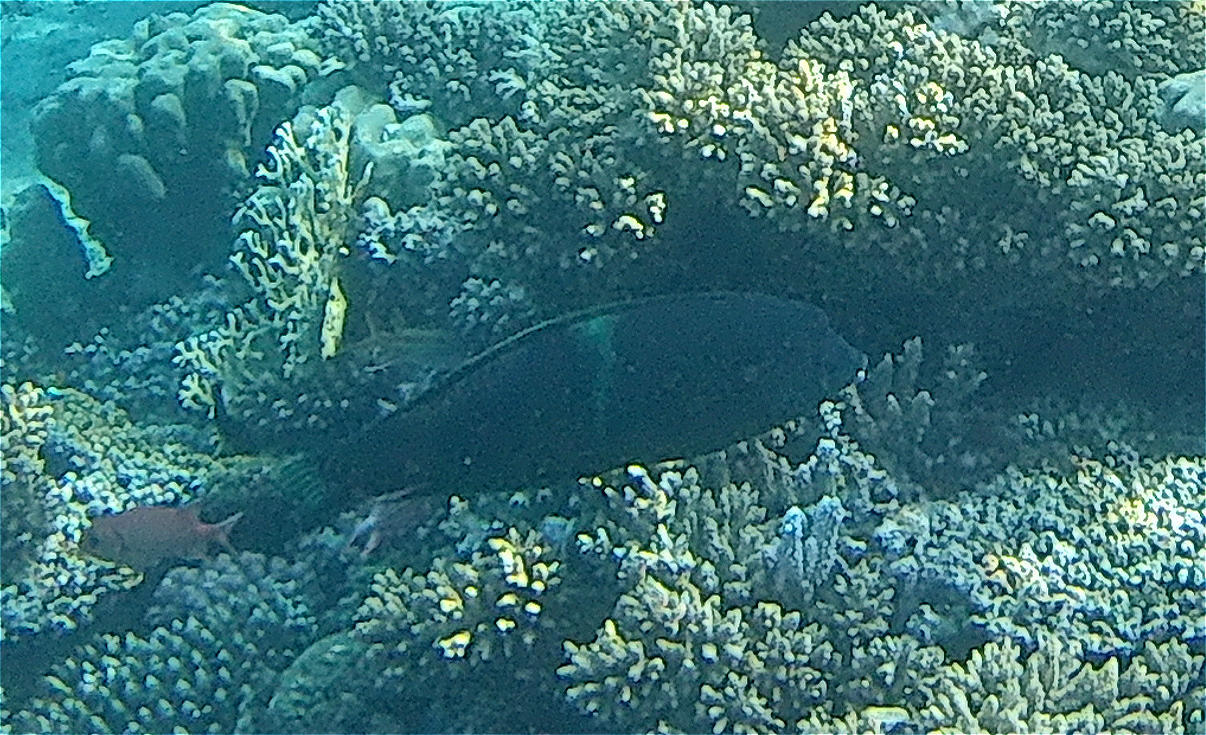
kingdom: Animalia
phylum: Chordata
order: Perciformes
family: Labridae
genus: Coris
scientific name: Coris aygula
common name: Clown coris
